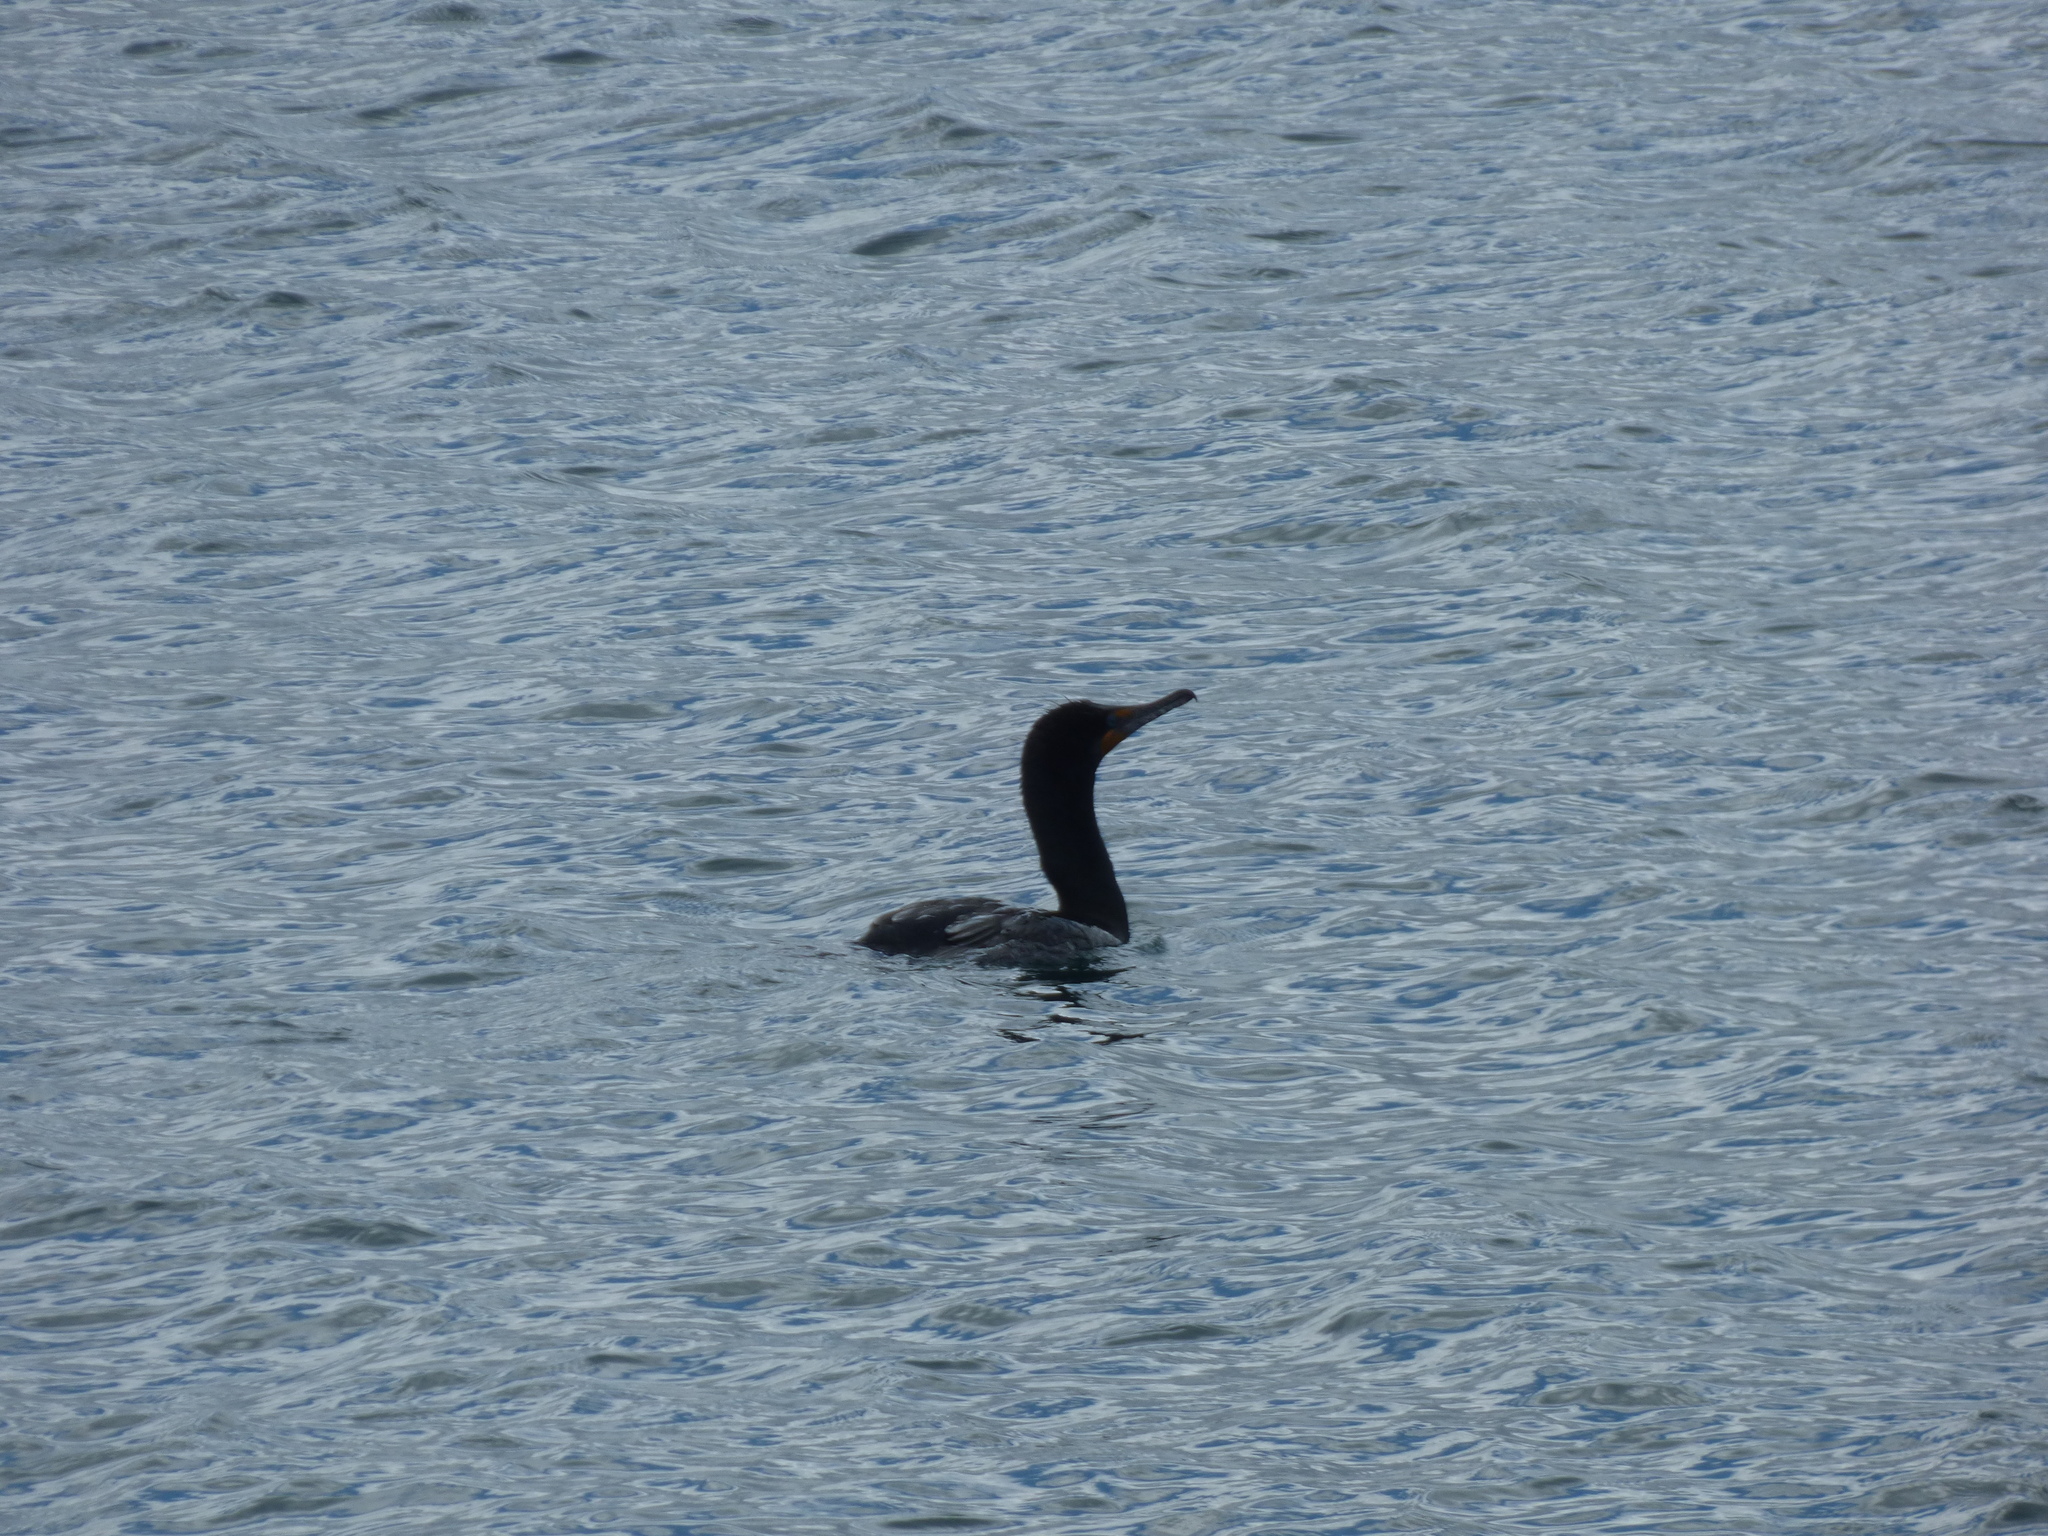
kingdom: Animalia
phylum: Chordata
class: Aves
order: Suliformes
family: Phalacrocoracidae
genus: Phalacrocorax
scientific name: Phalacrocorax auritus
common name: Double-crested cormorant
